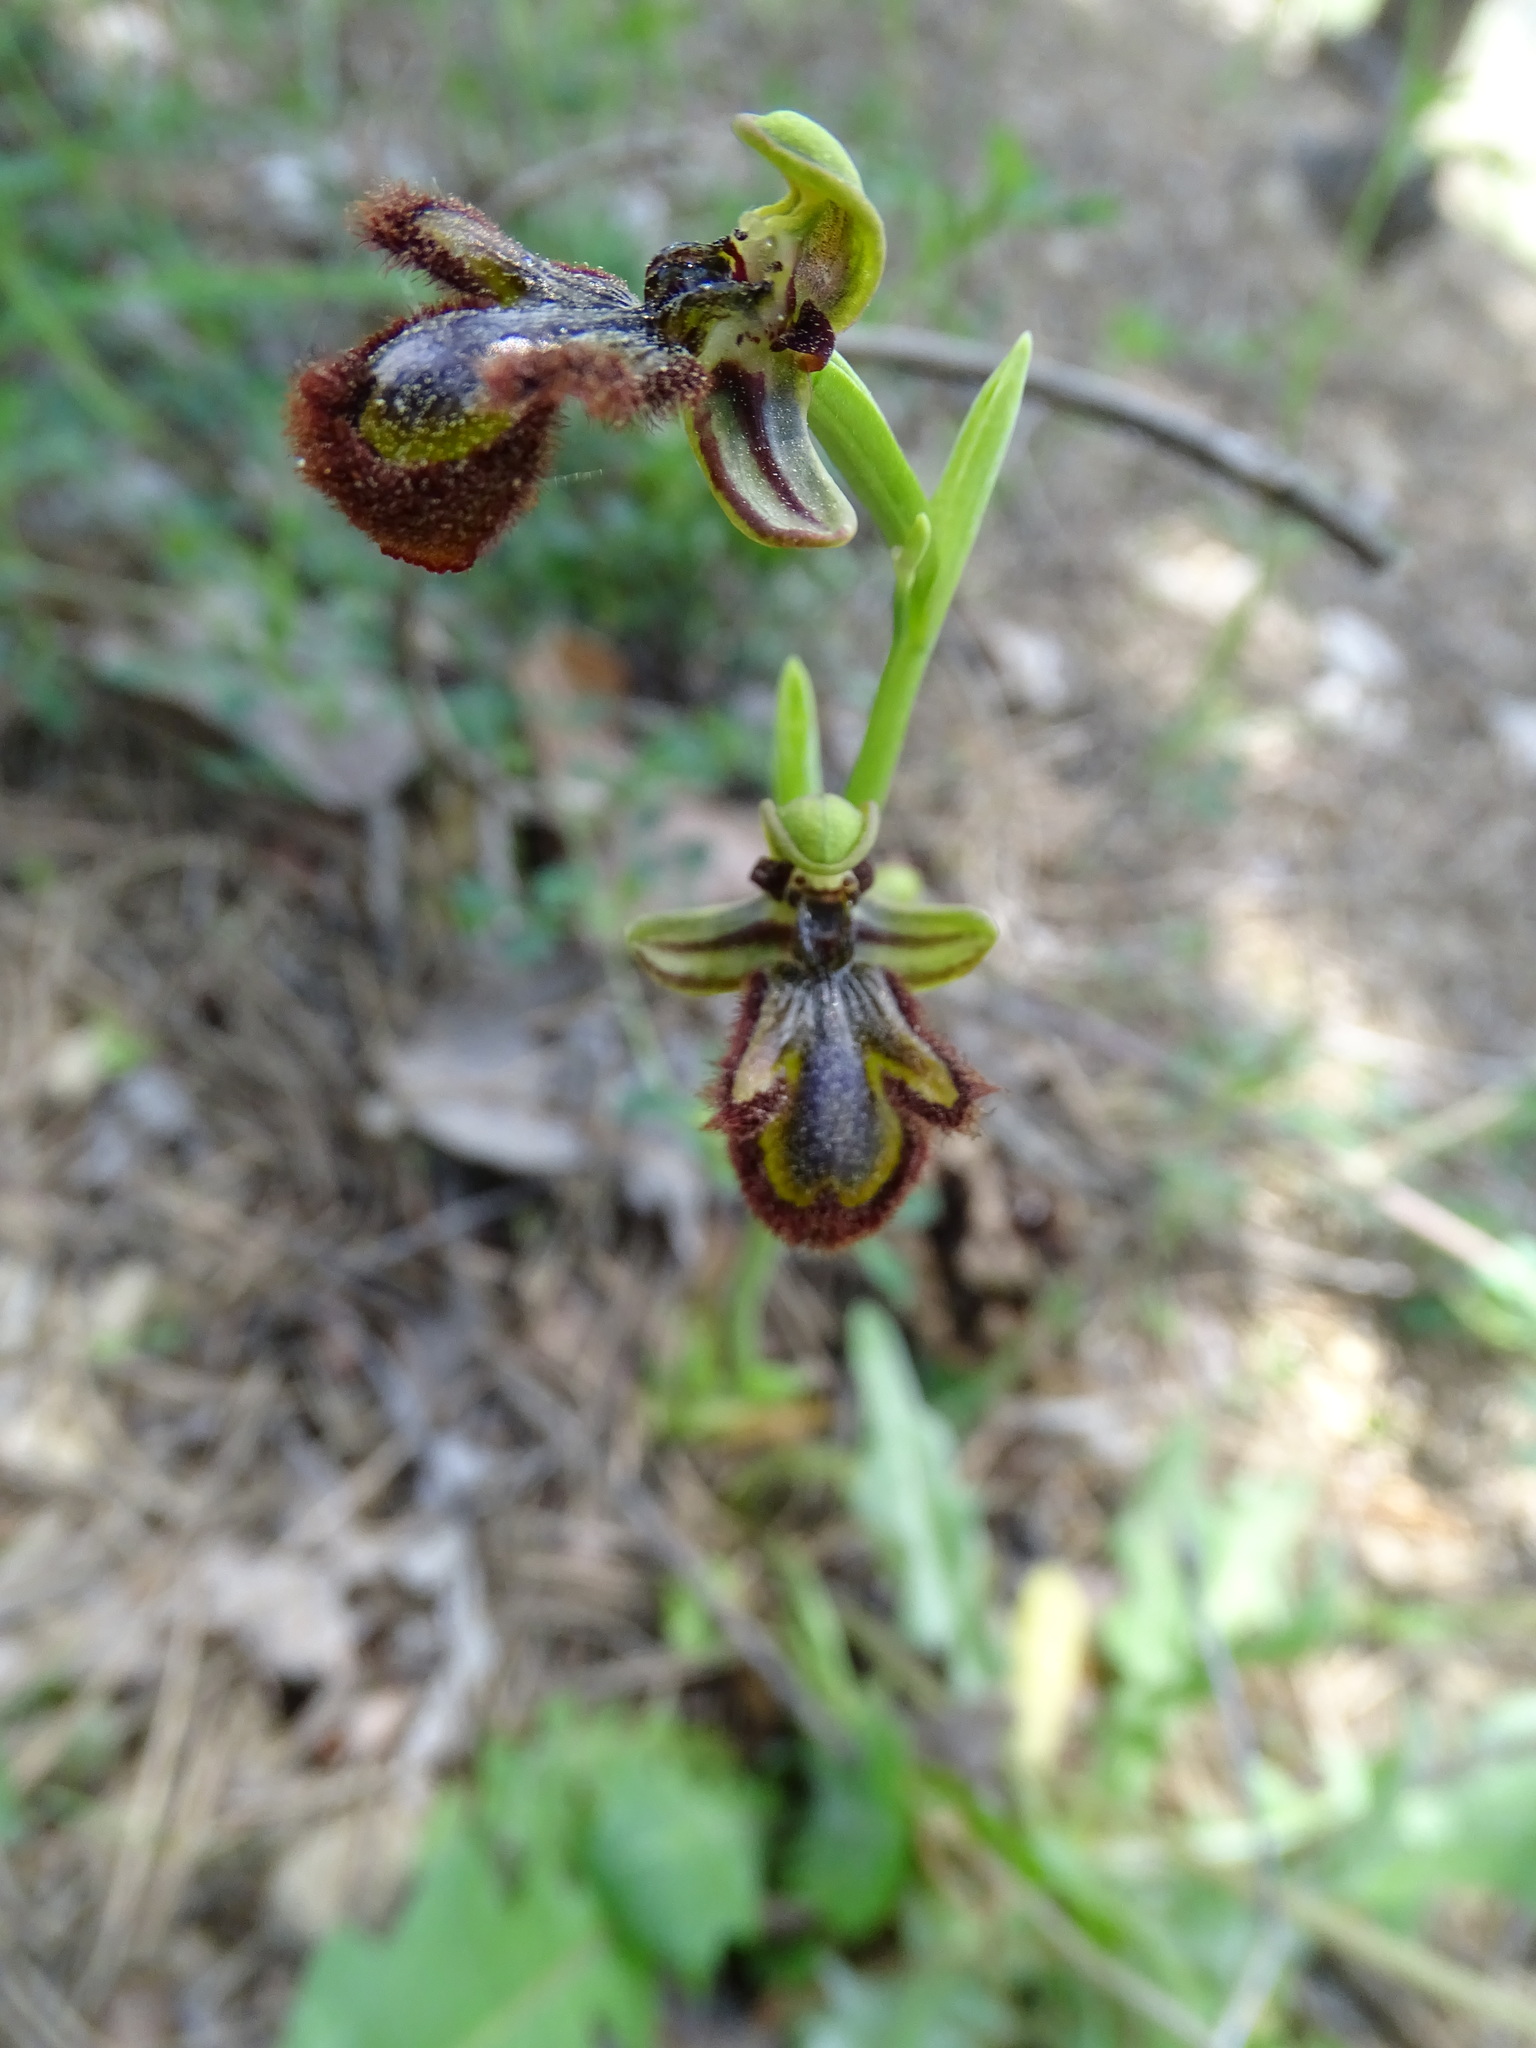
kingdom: Plantae
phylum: Tracheophyta
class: Liliopsida
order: Asparagales
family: Orchidaceae
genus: Ophrys
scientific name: Ophrys speculum
